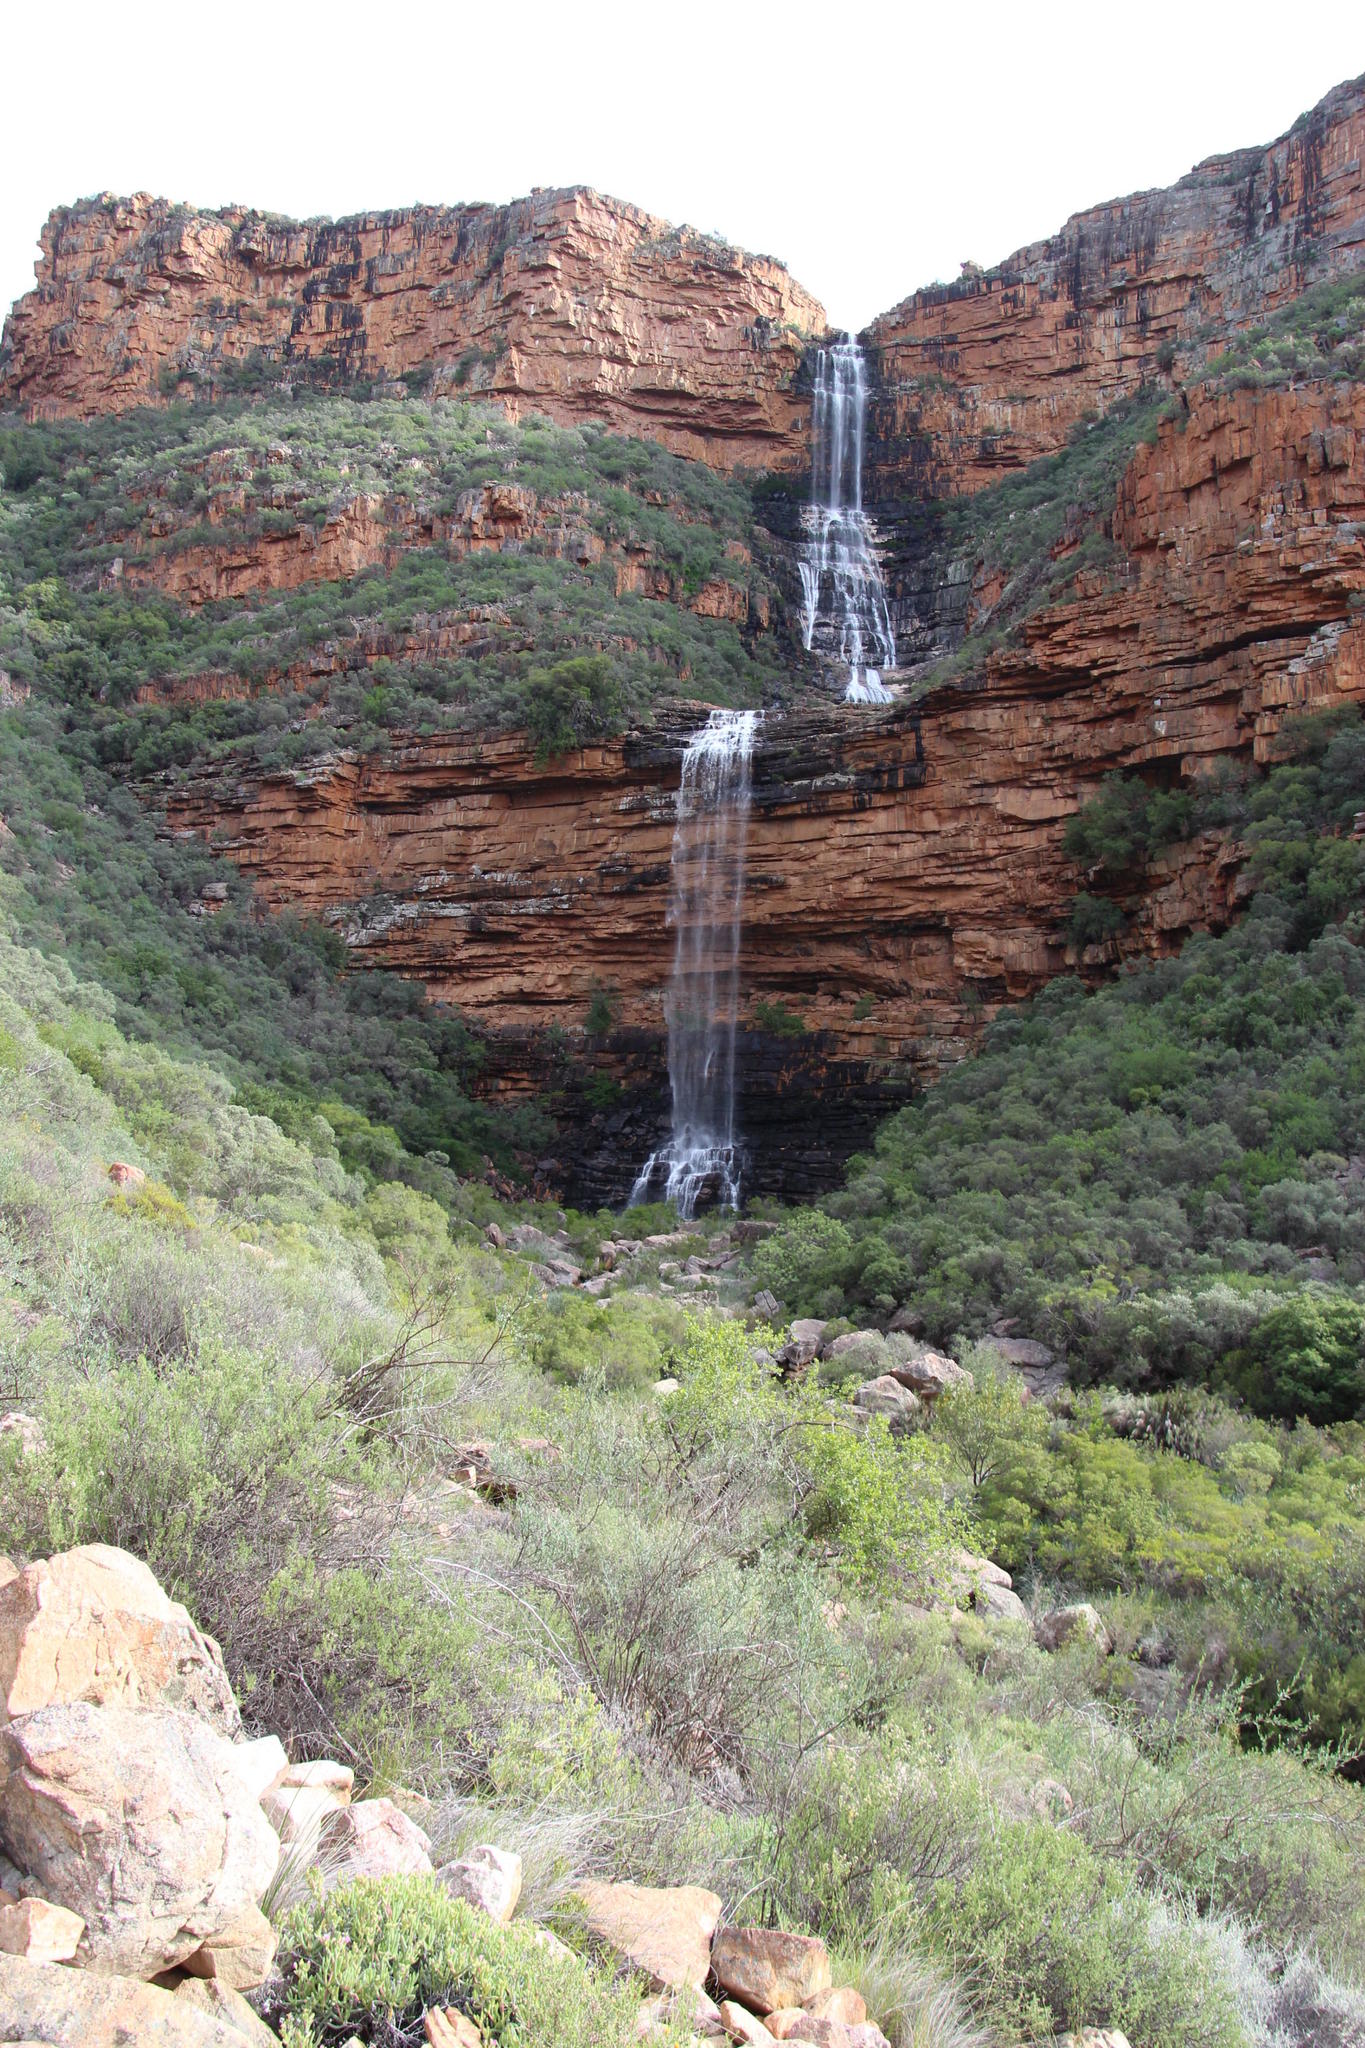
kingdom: Plantae
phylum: Tracheophyta
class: Magnoliopsida
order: Solanales
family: Montiniaceae
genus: Montinia
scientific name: Montinia caryophyllacea
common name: Wild clove-bush
